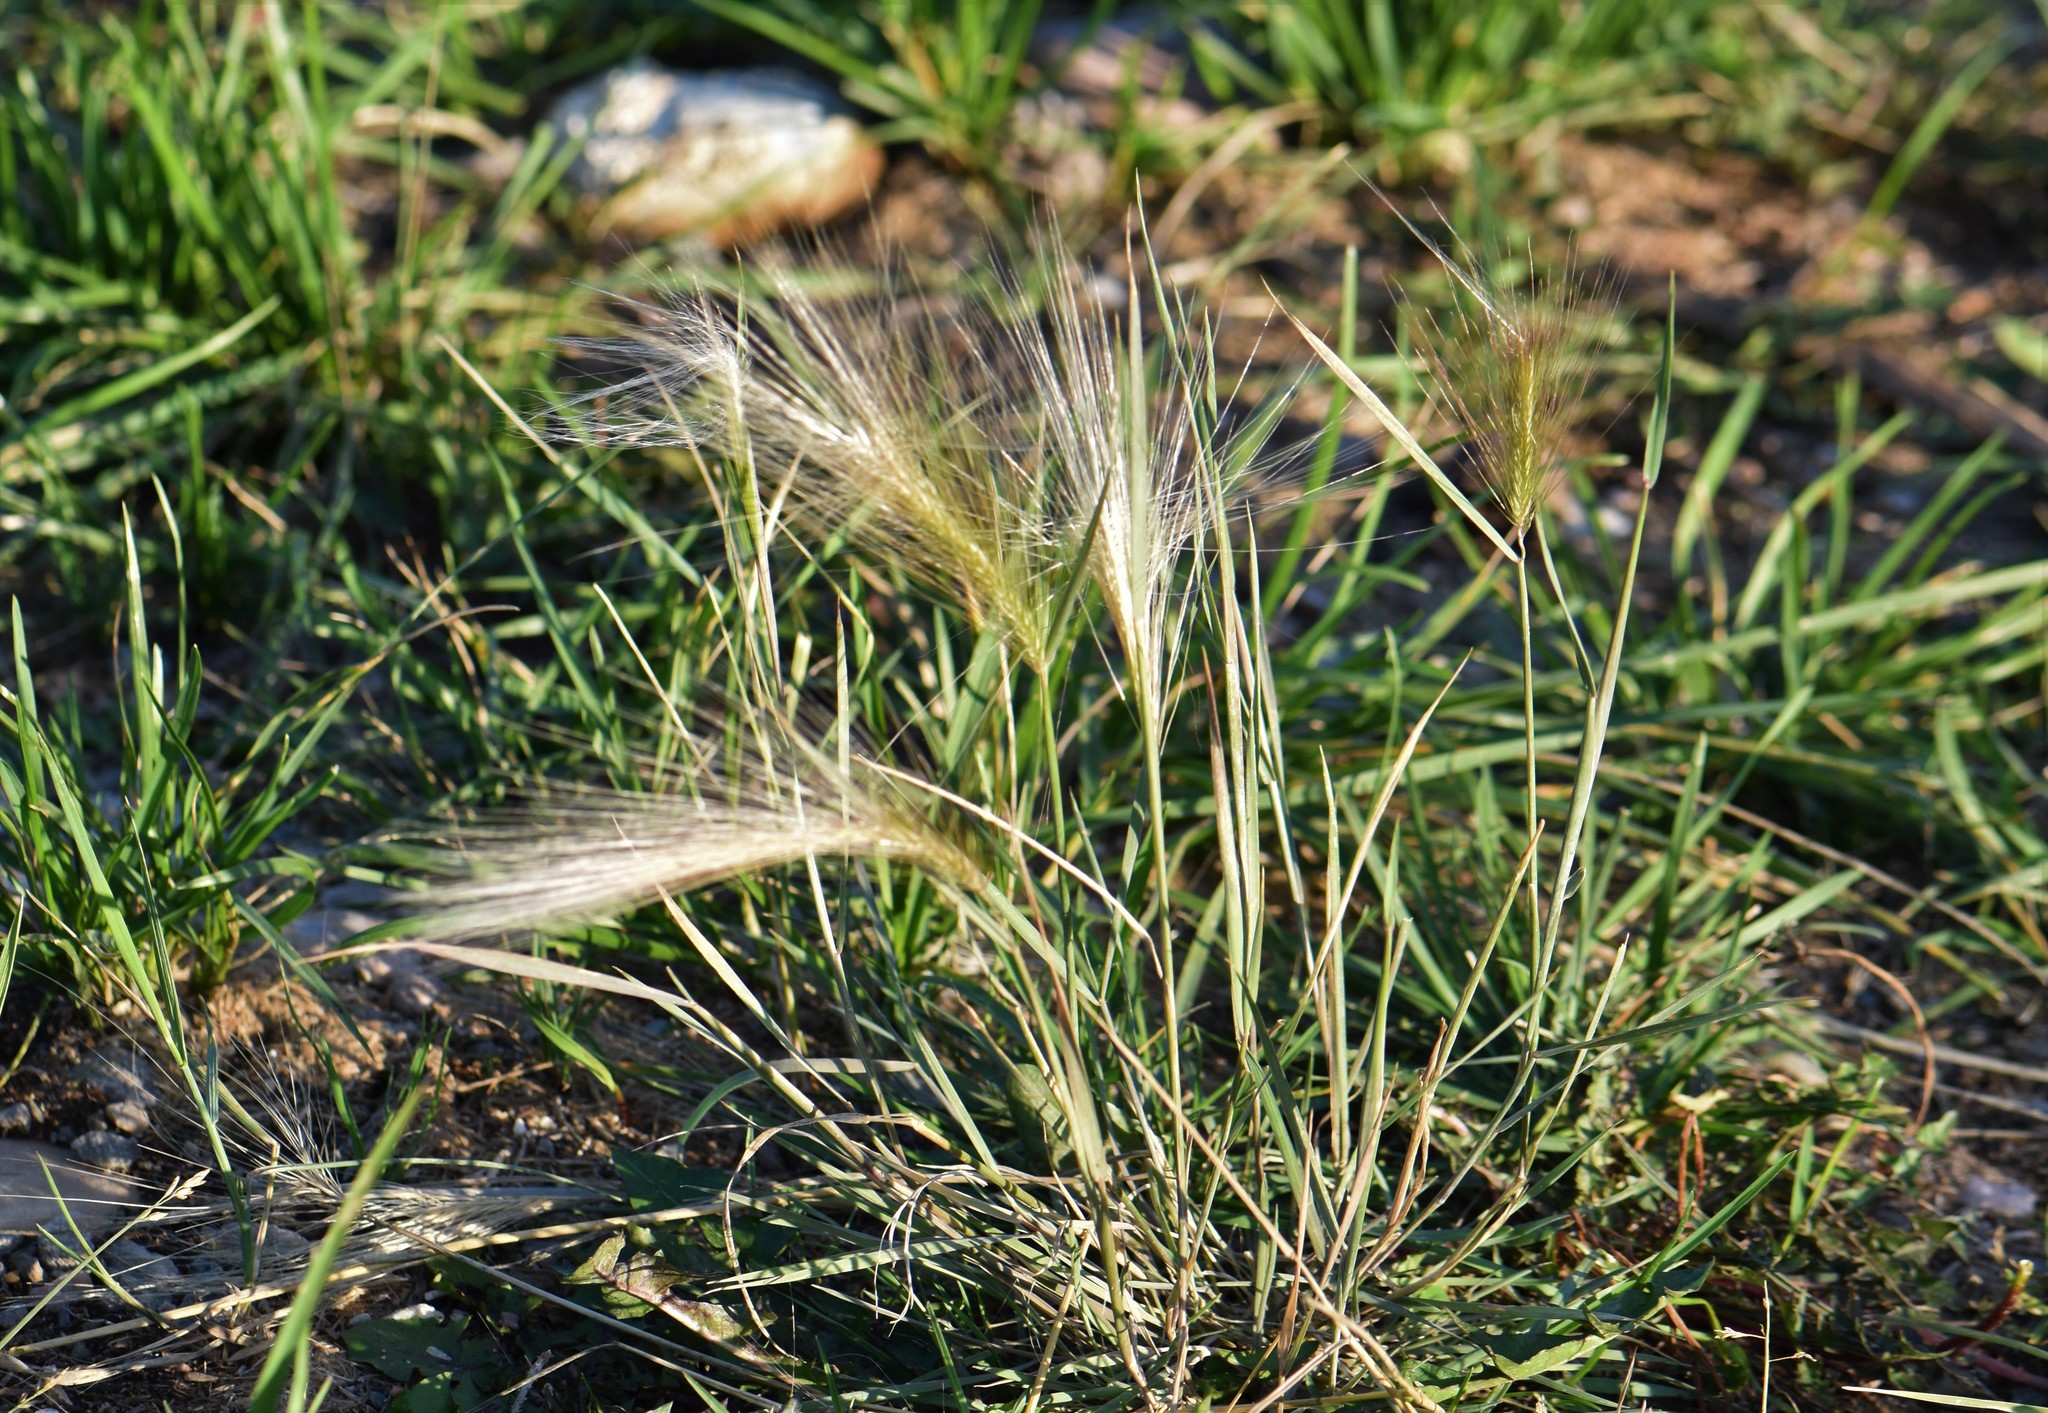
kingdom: Plantae
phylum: Tracheophyta
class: Liliopsida
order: Poales
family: Poaceae
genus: Hordeum
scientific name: Hordeum jubatum
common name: Foxtail barley
